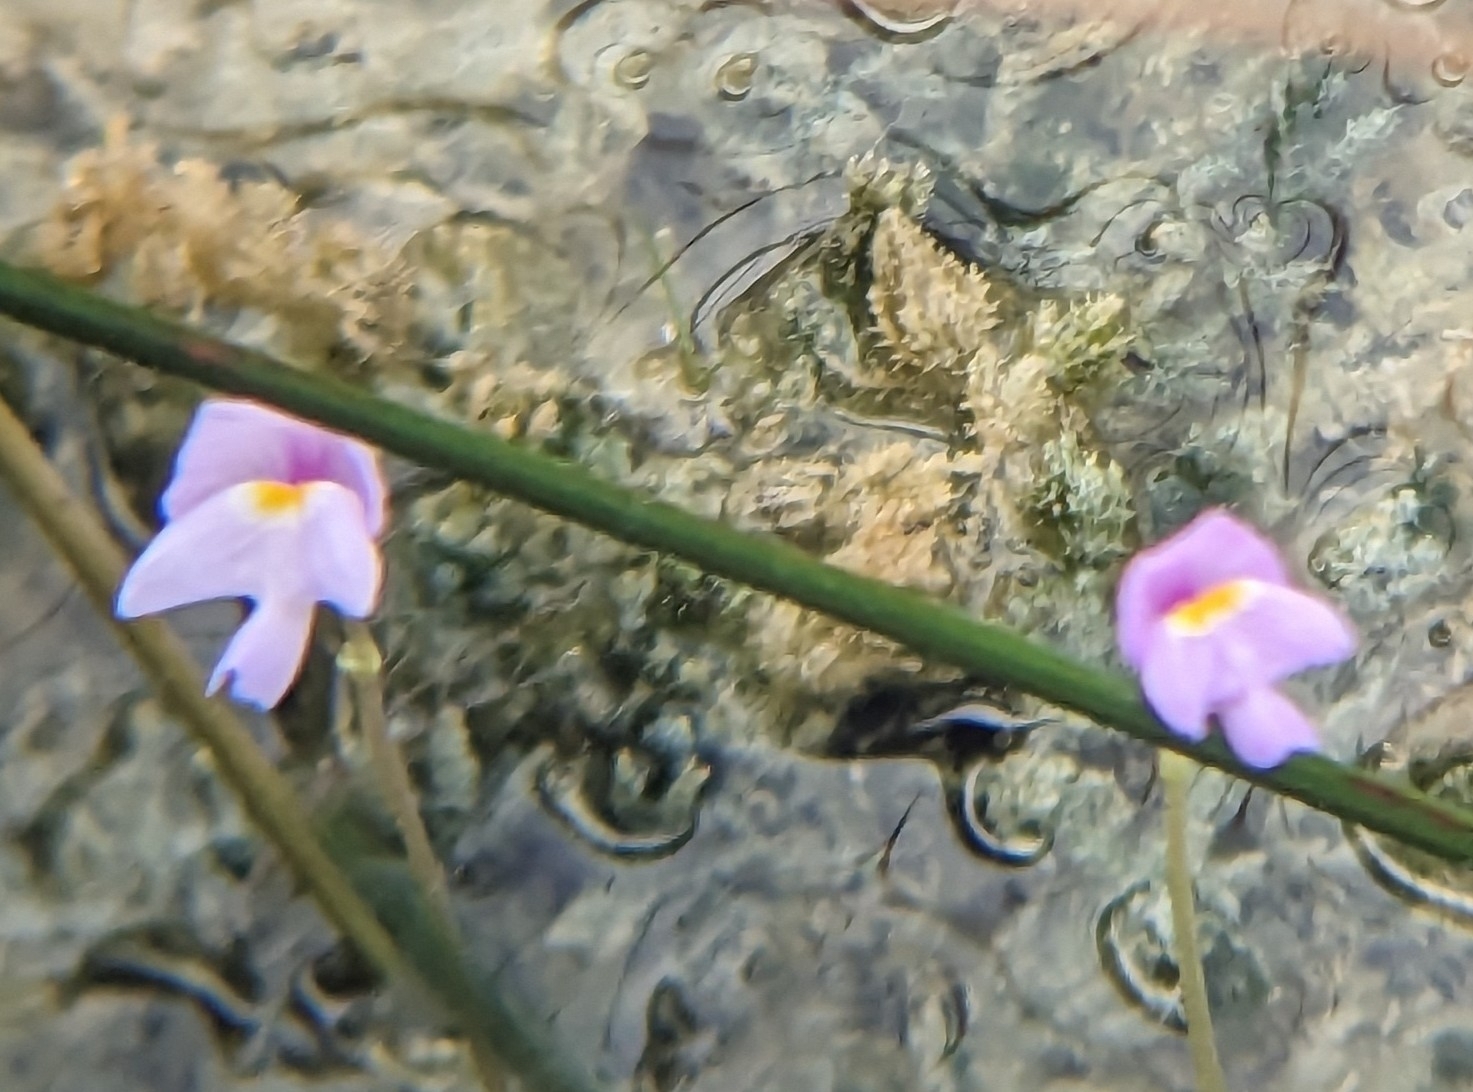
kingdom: Plantae
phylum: Tracheophyta
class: Magnoliopsida
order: Lamiales
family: Lentibulariaceae
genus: Utricularia
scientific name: Utricularia purpurea
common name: Eastern purple bladderwort
